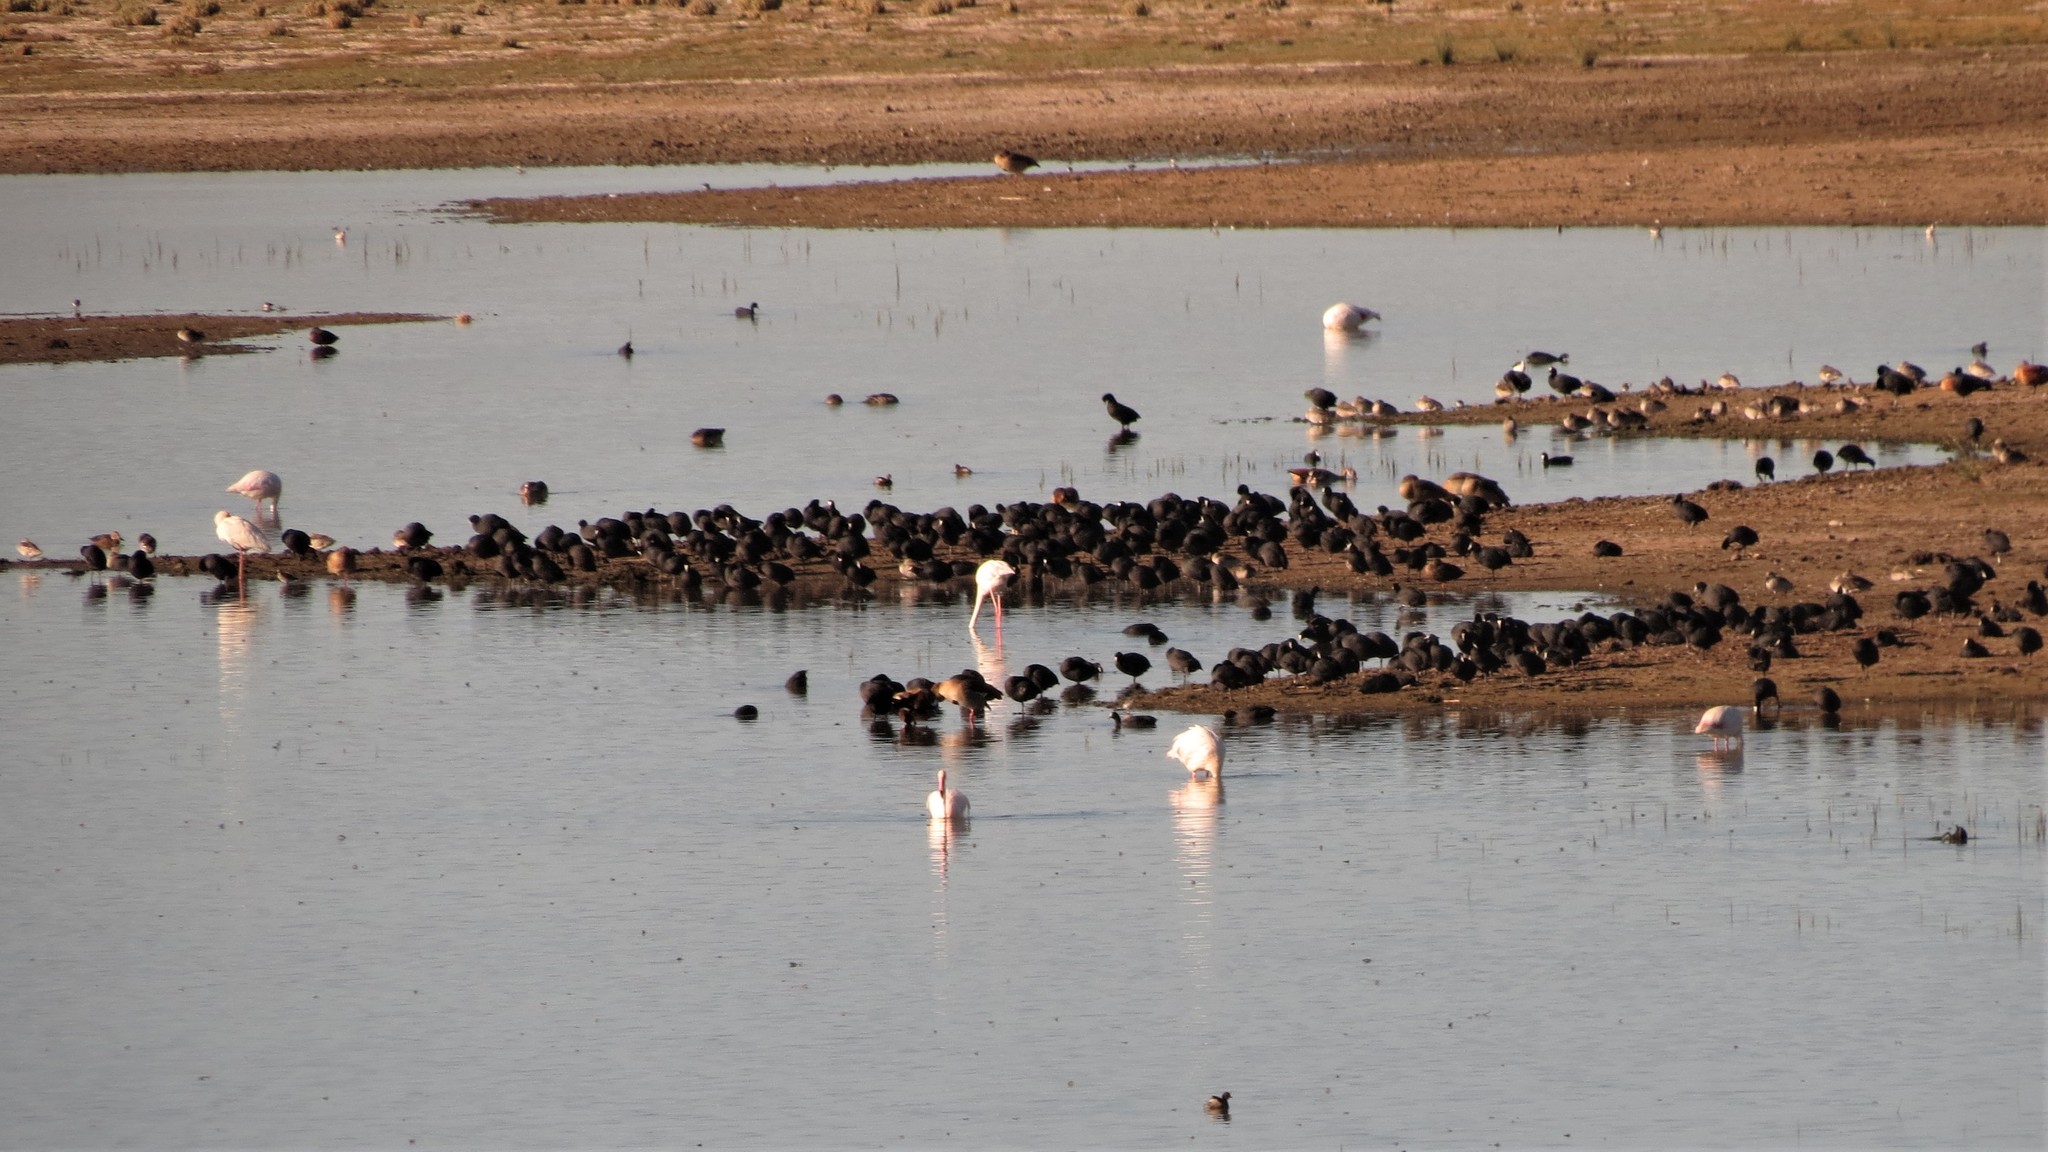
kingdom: Animalia
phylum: Chordata
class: Aves
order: Gruiformes
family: Rallidae
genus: Fulica
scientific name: Fulica cristata
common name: Red-knobbed coot
